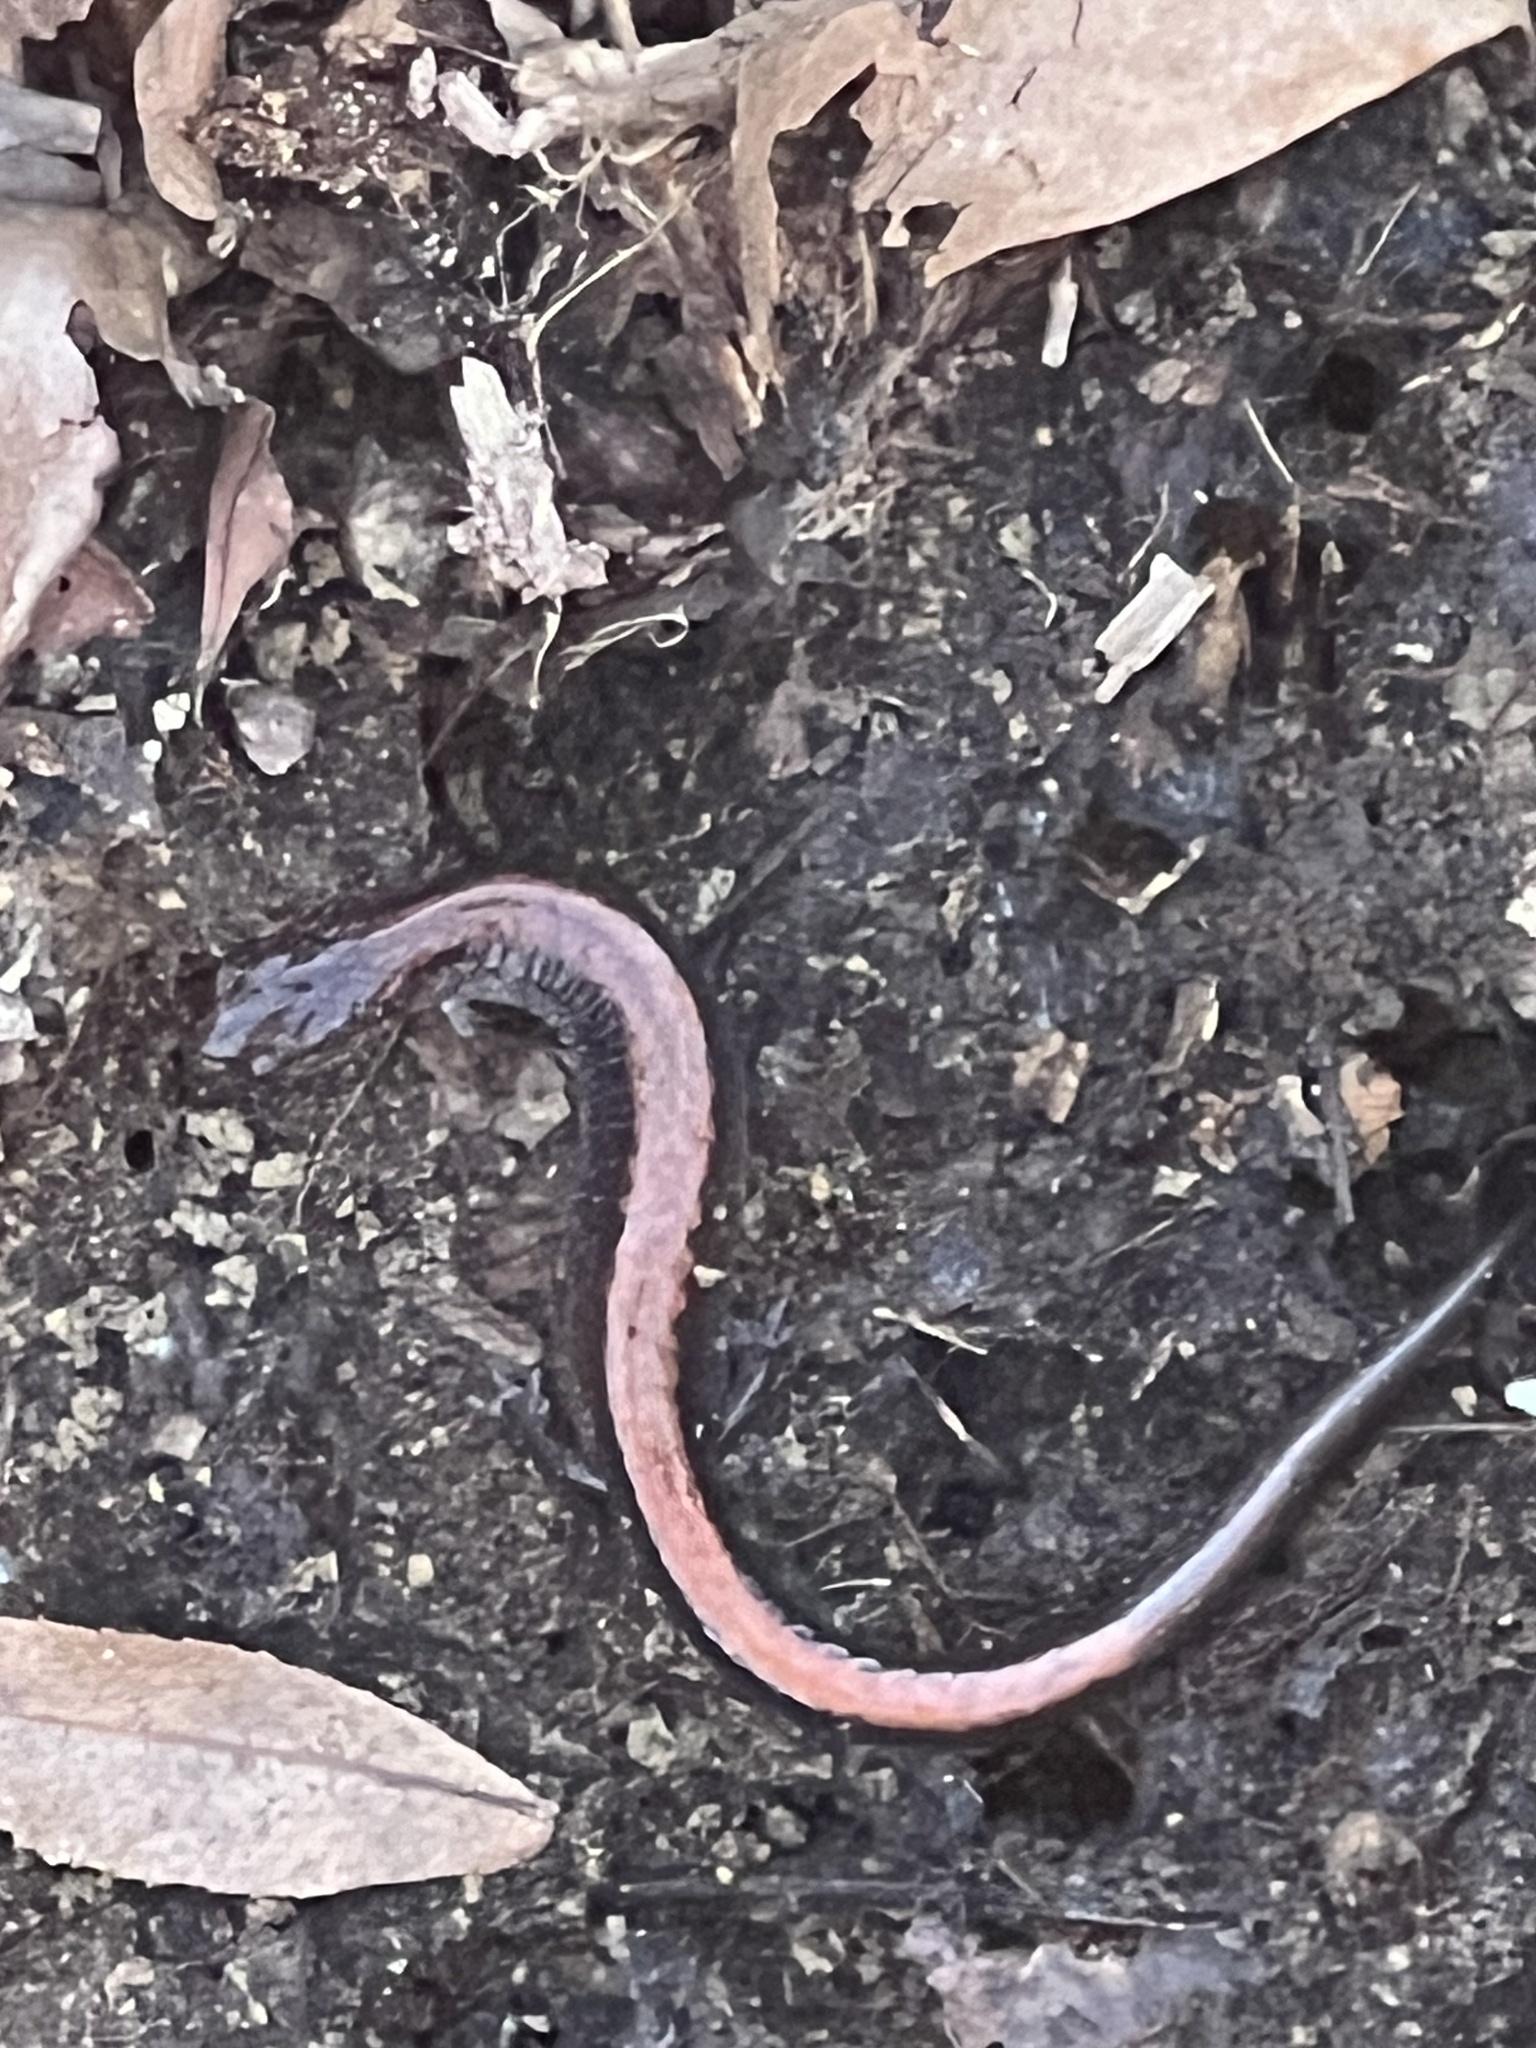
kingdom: Animalia
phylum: Chordata
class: Amphibia
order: Caudata
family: Plethodontidae
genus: Plethodon
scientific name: Plethodon cinereus
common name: Redback salamander
